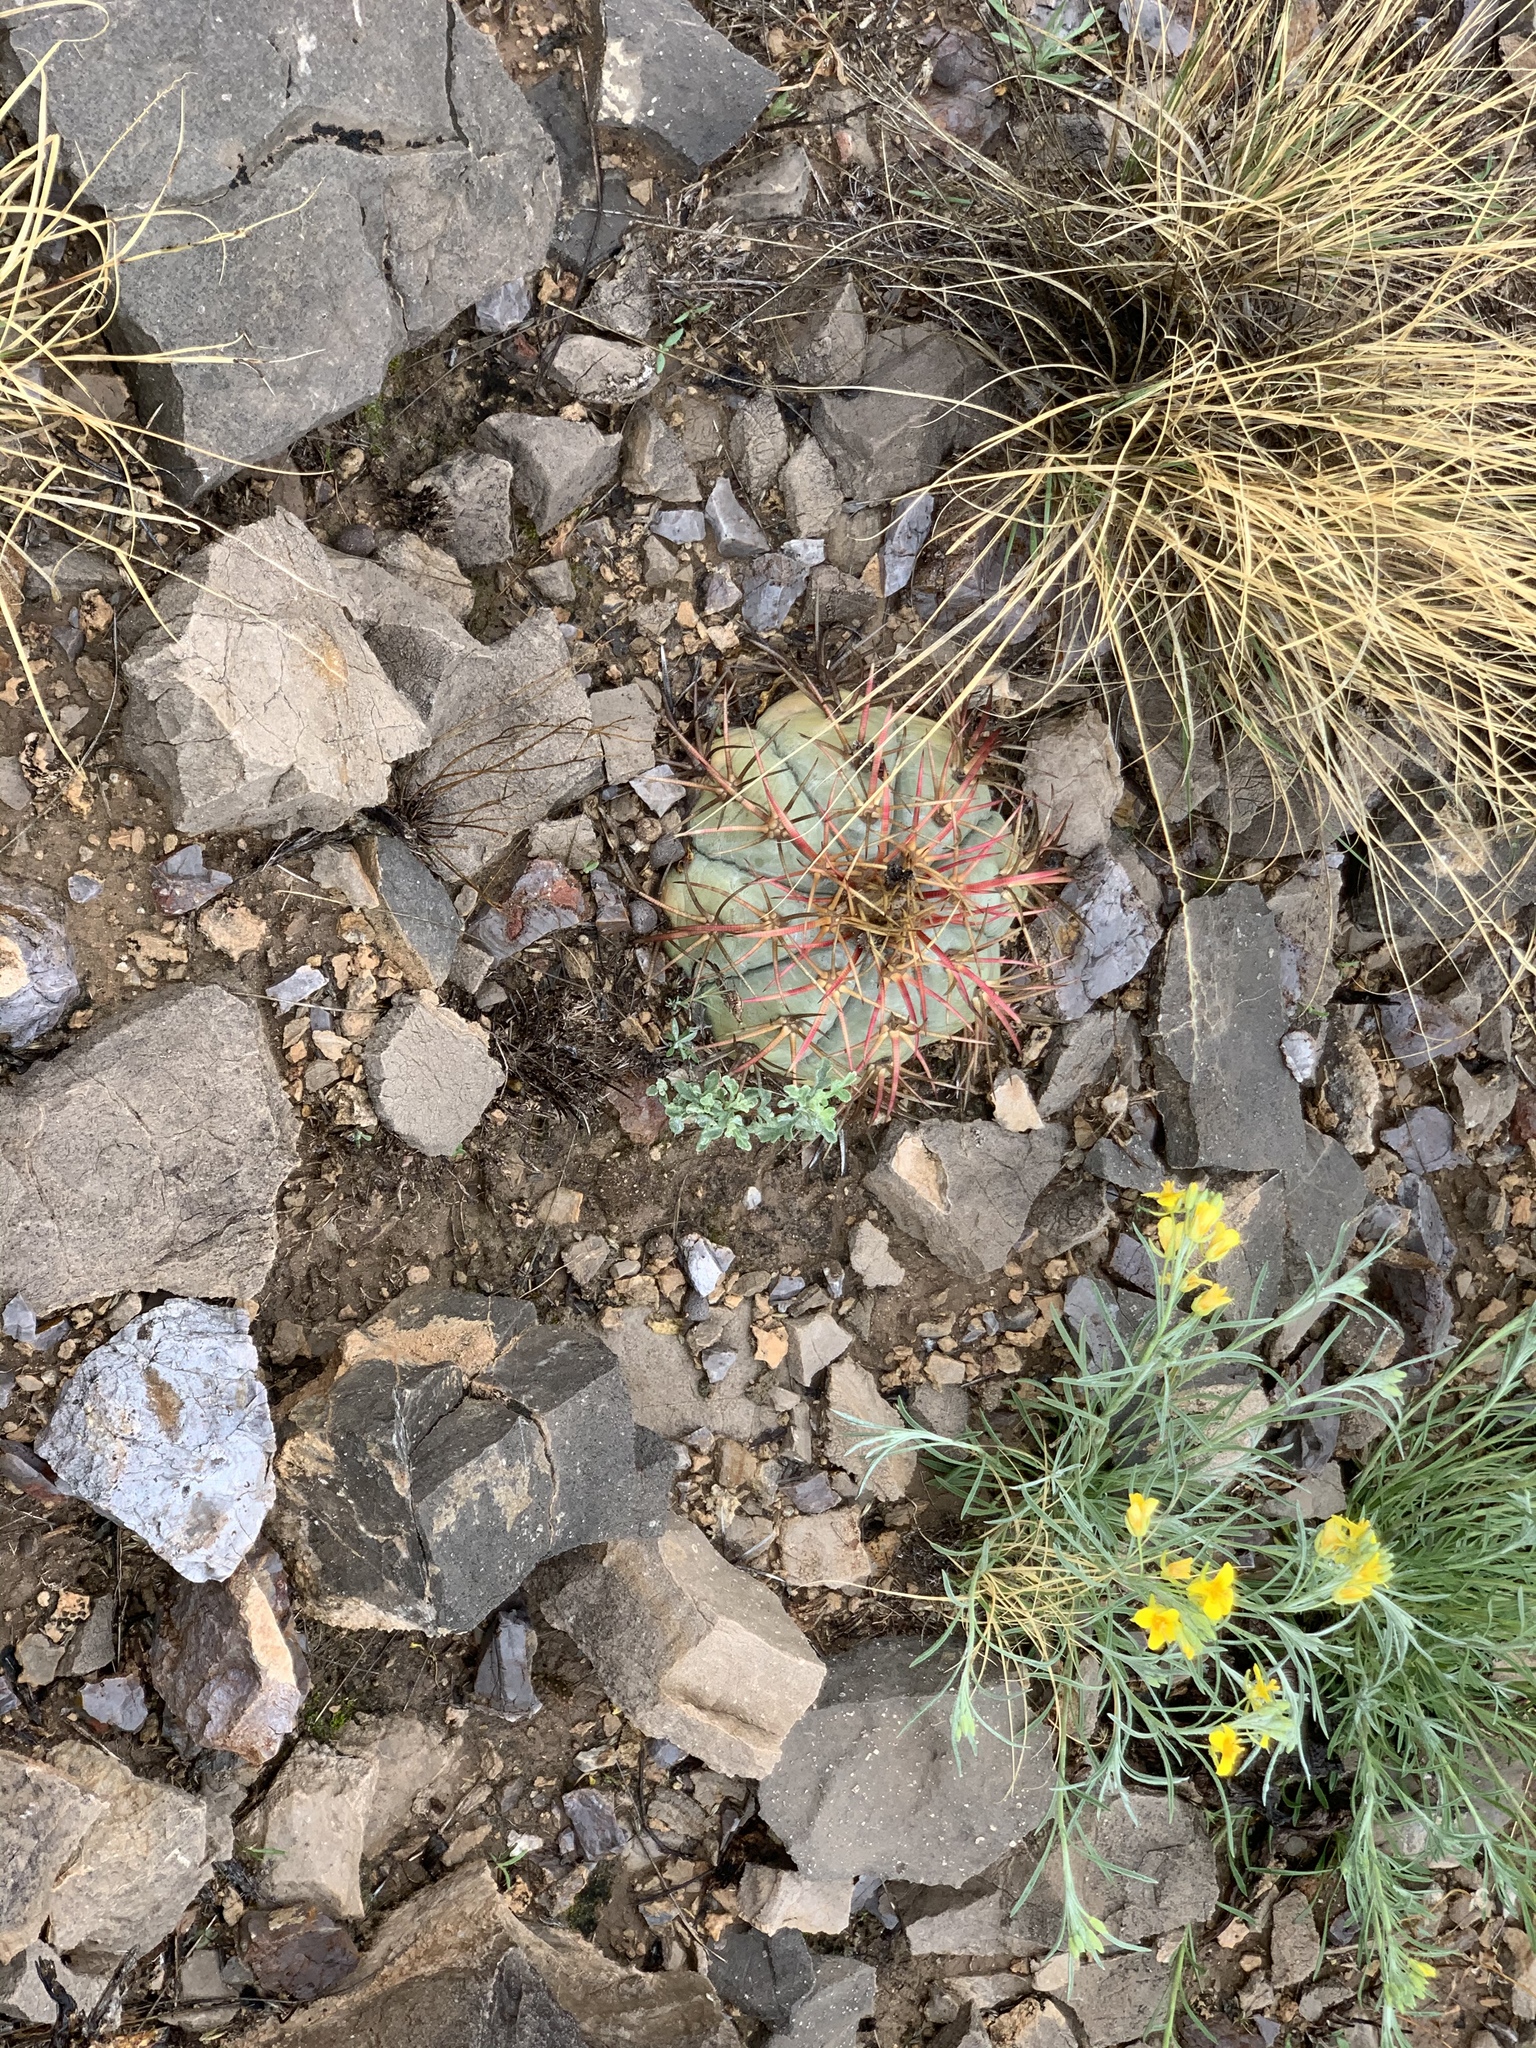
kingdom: Plantae
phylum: Tracheophyta
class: Magnoliopsida
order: Caryophyllales
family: Cactaceae
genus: Echinocactus
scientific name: Echinocactus horizonthalonius
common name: Devilshead
